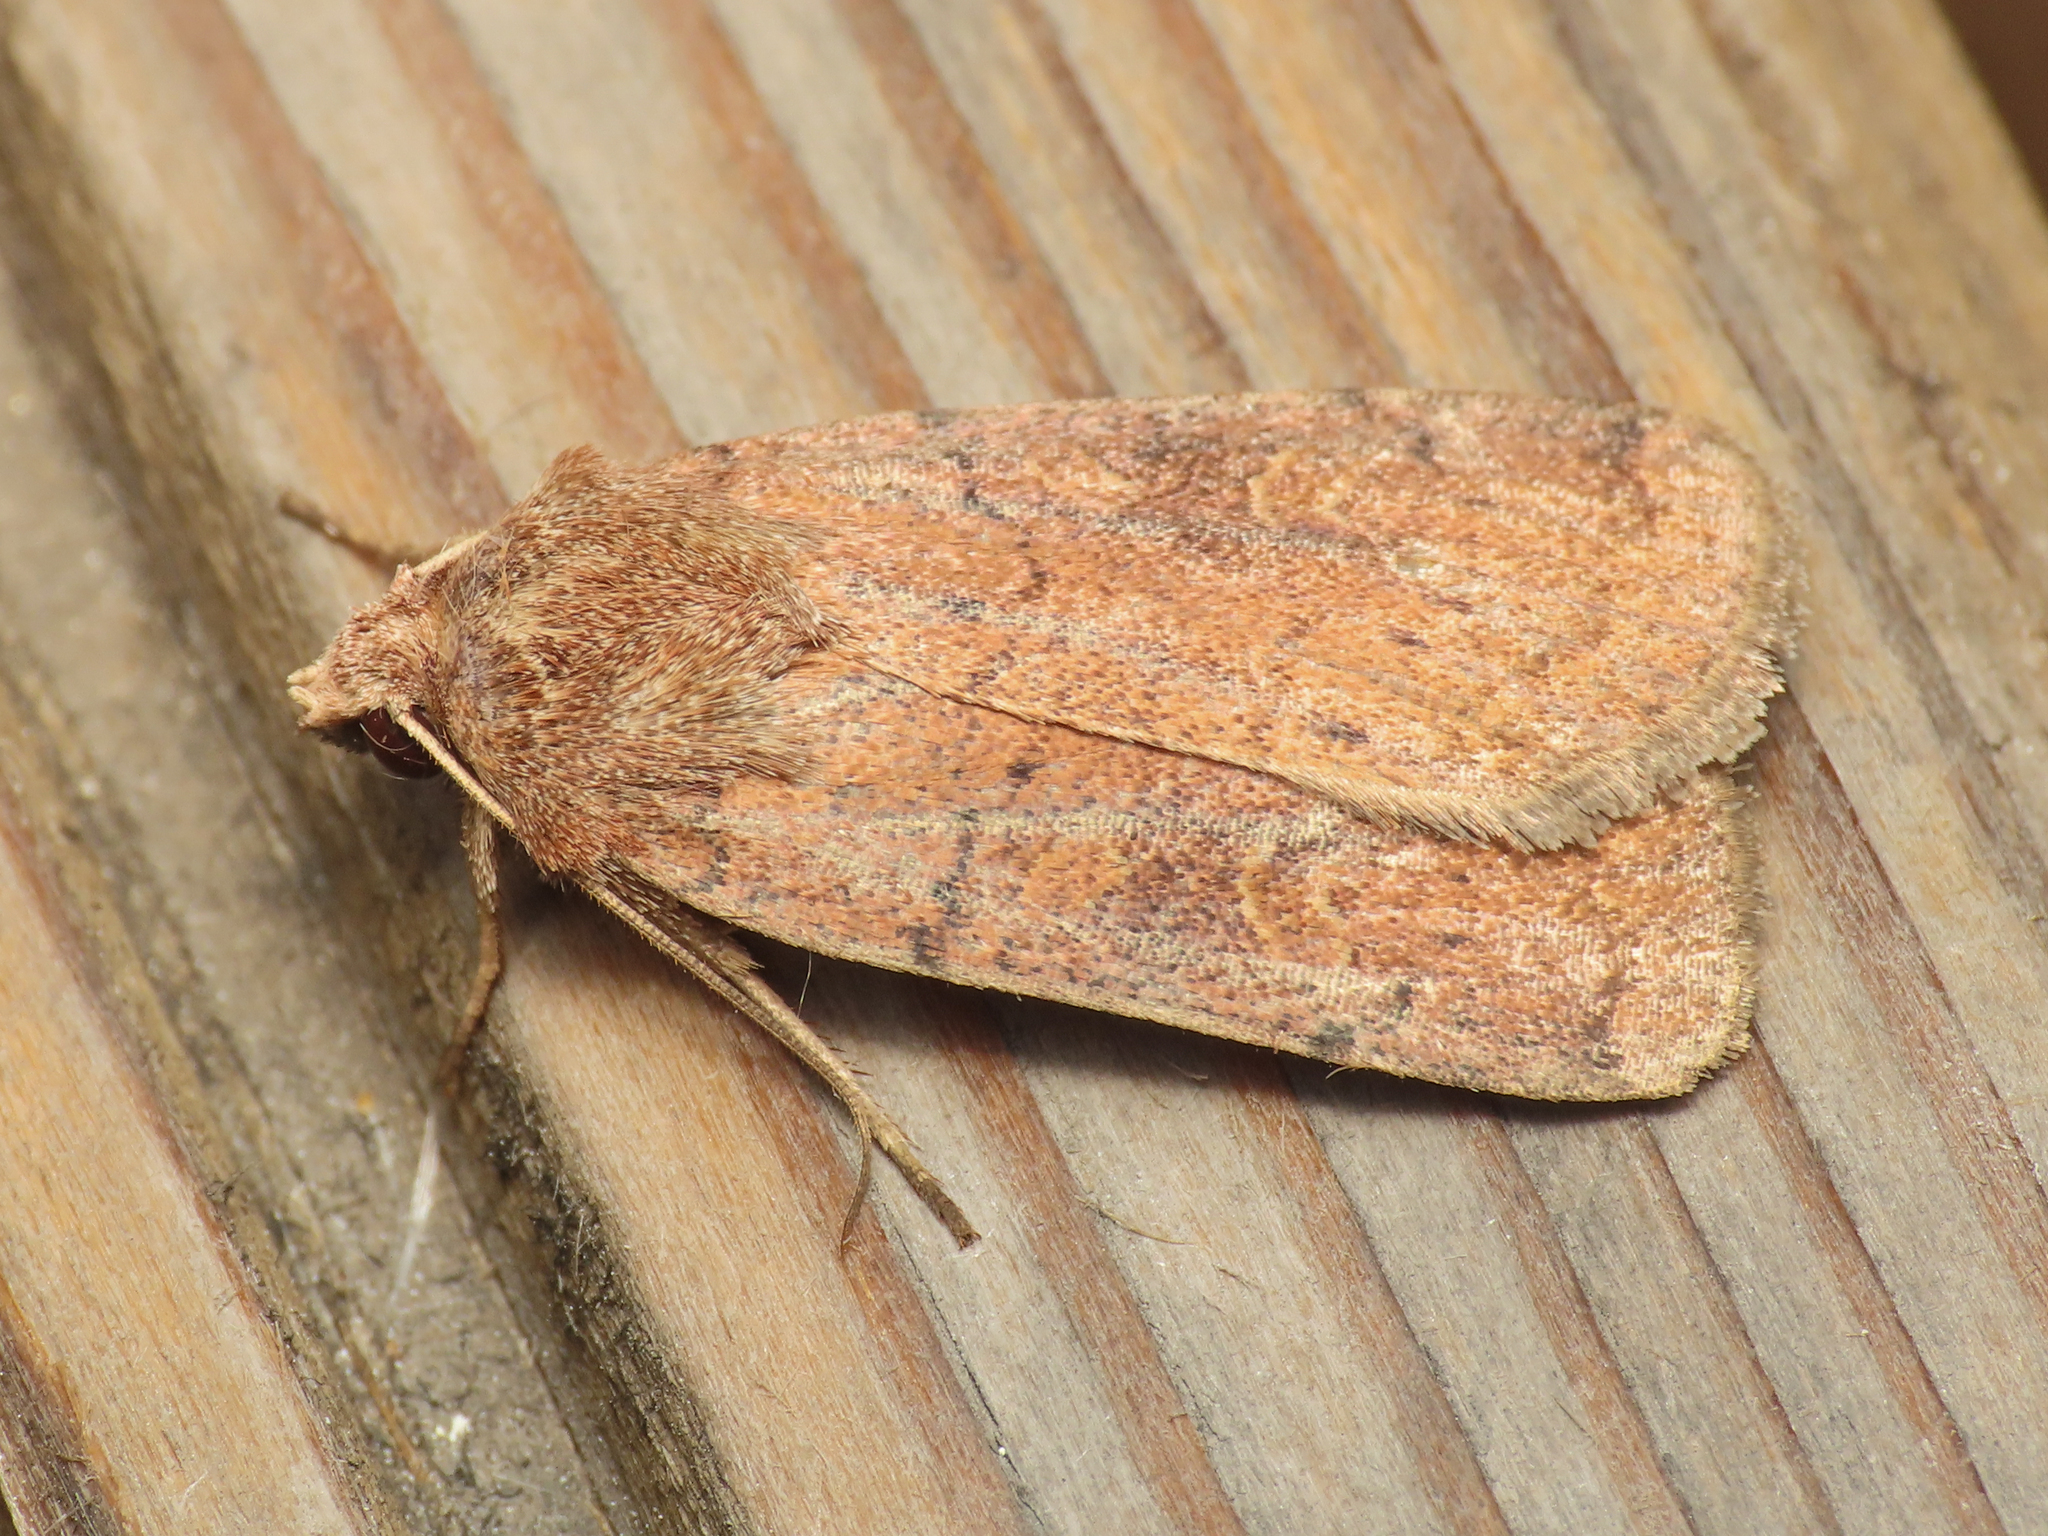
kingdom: Animalia
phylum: Arthropoda
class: Insecta
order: Lepidoptera
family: Noctuidae
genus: Xestia
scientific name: Xestia xanthographa
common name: Square-spot rustic
